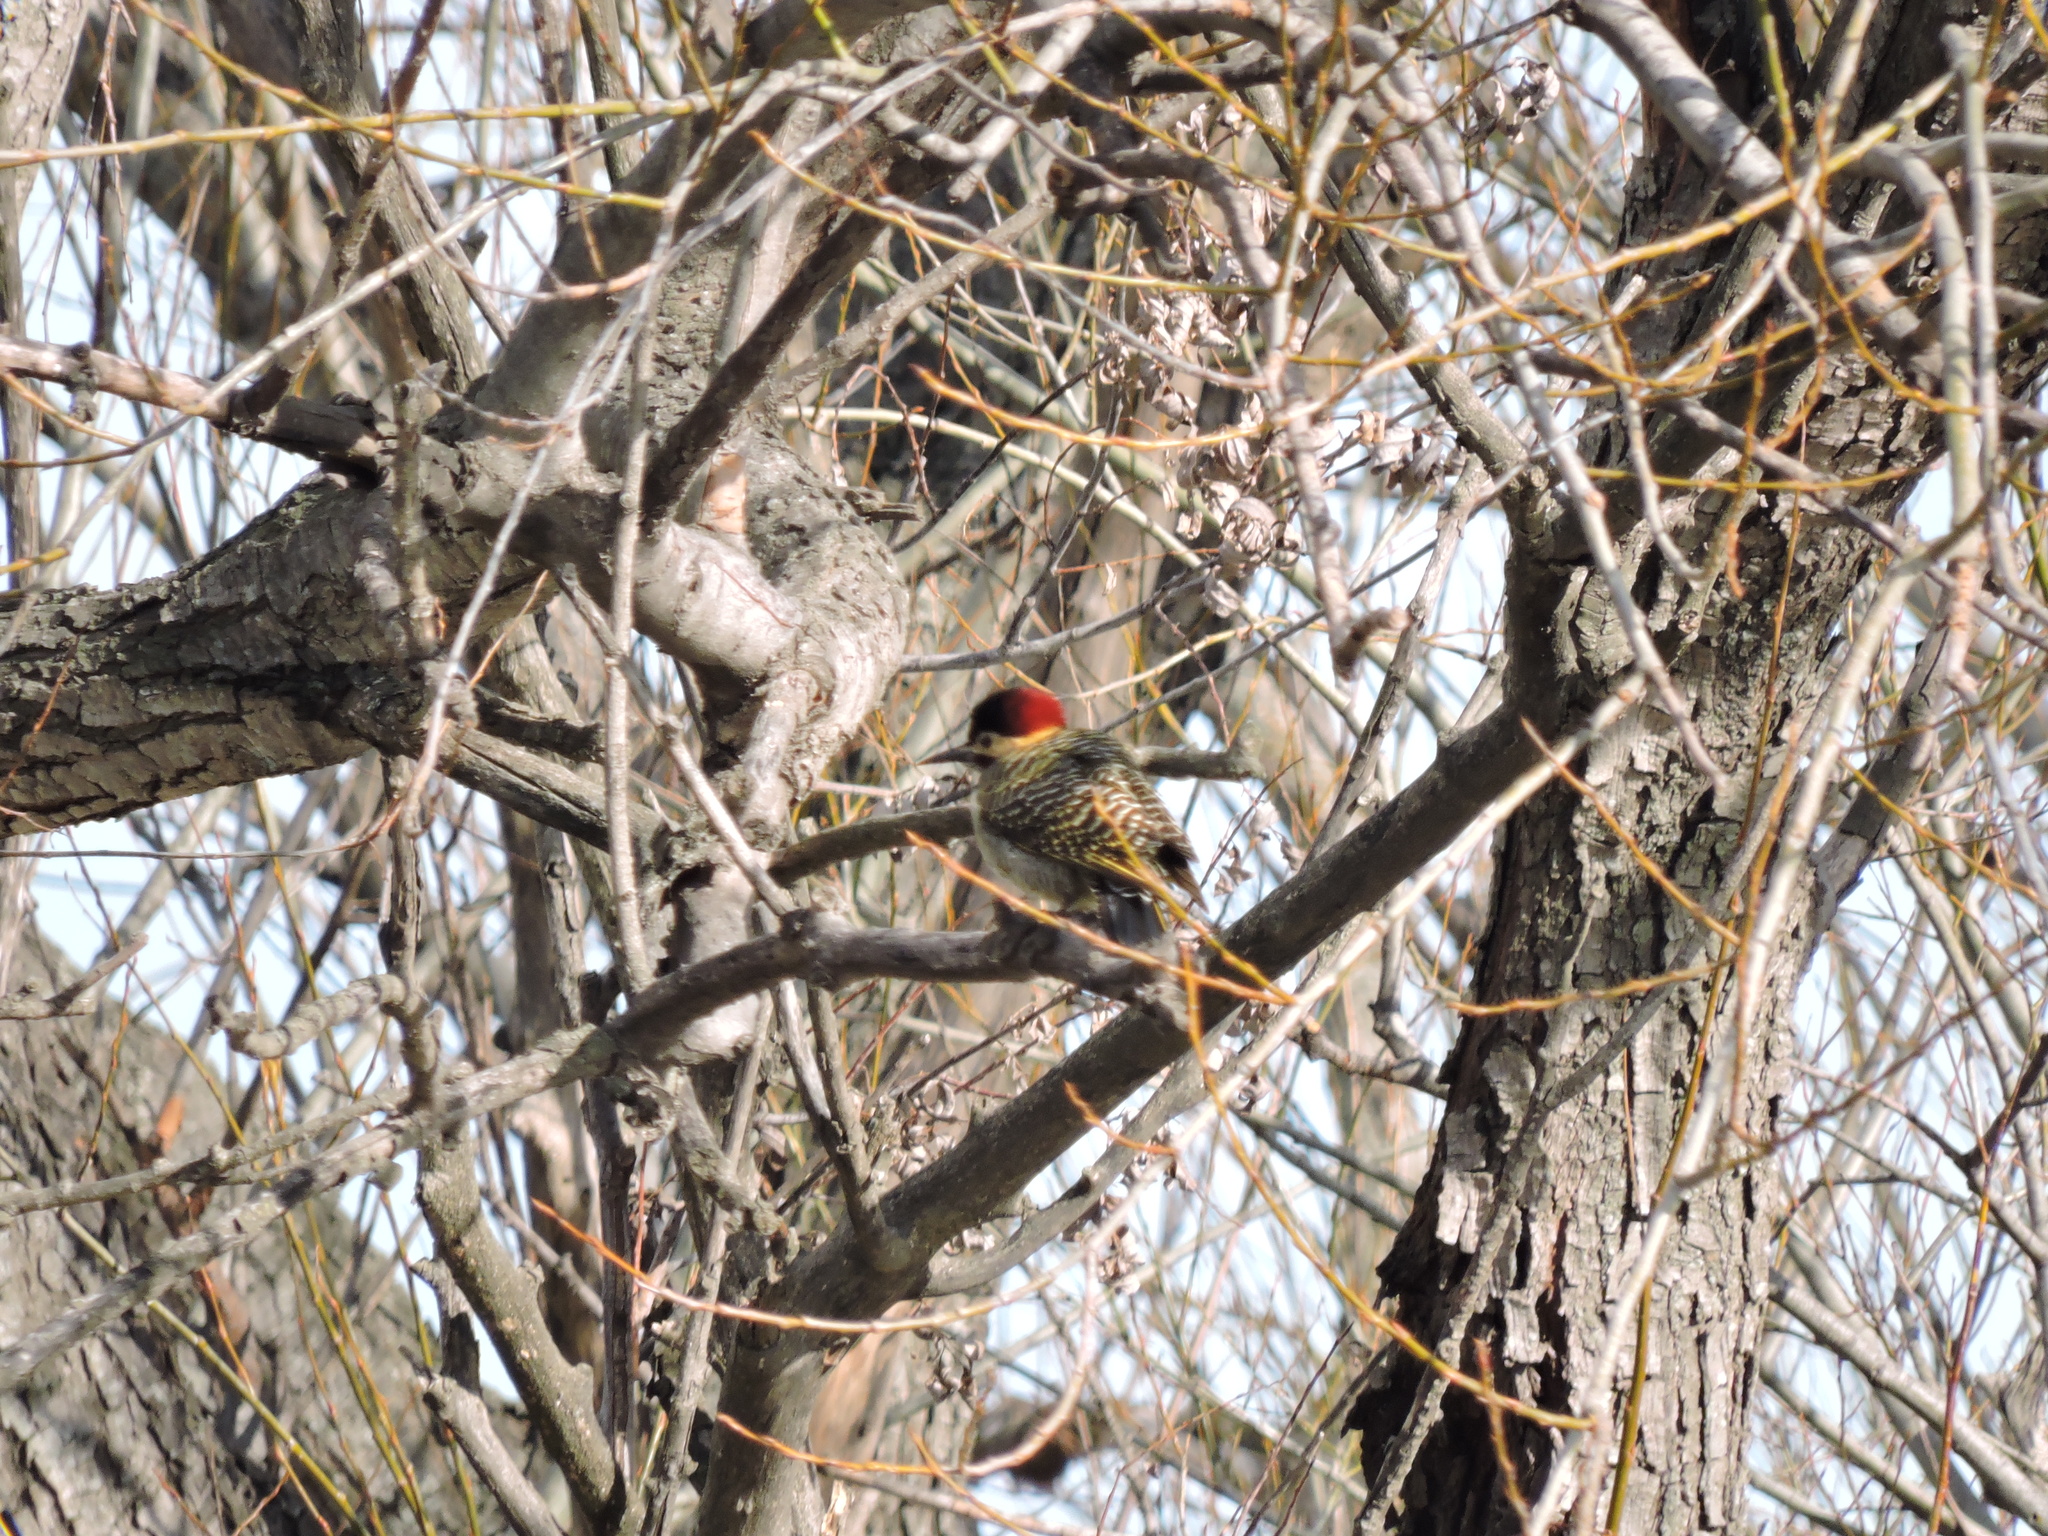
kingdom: Animalia
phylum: Chordata
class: Aves
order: Piciformes
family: Picidae
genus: Colaptes
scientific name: Colaptes melanochloros
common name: Green-barred woodpecker
